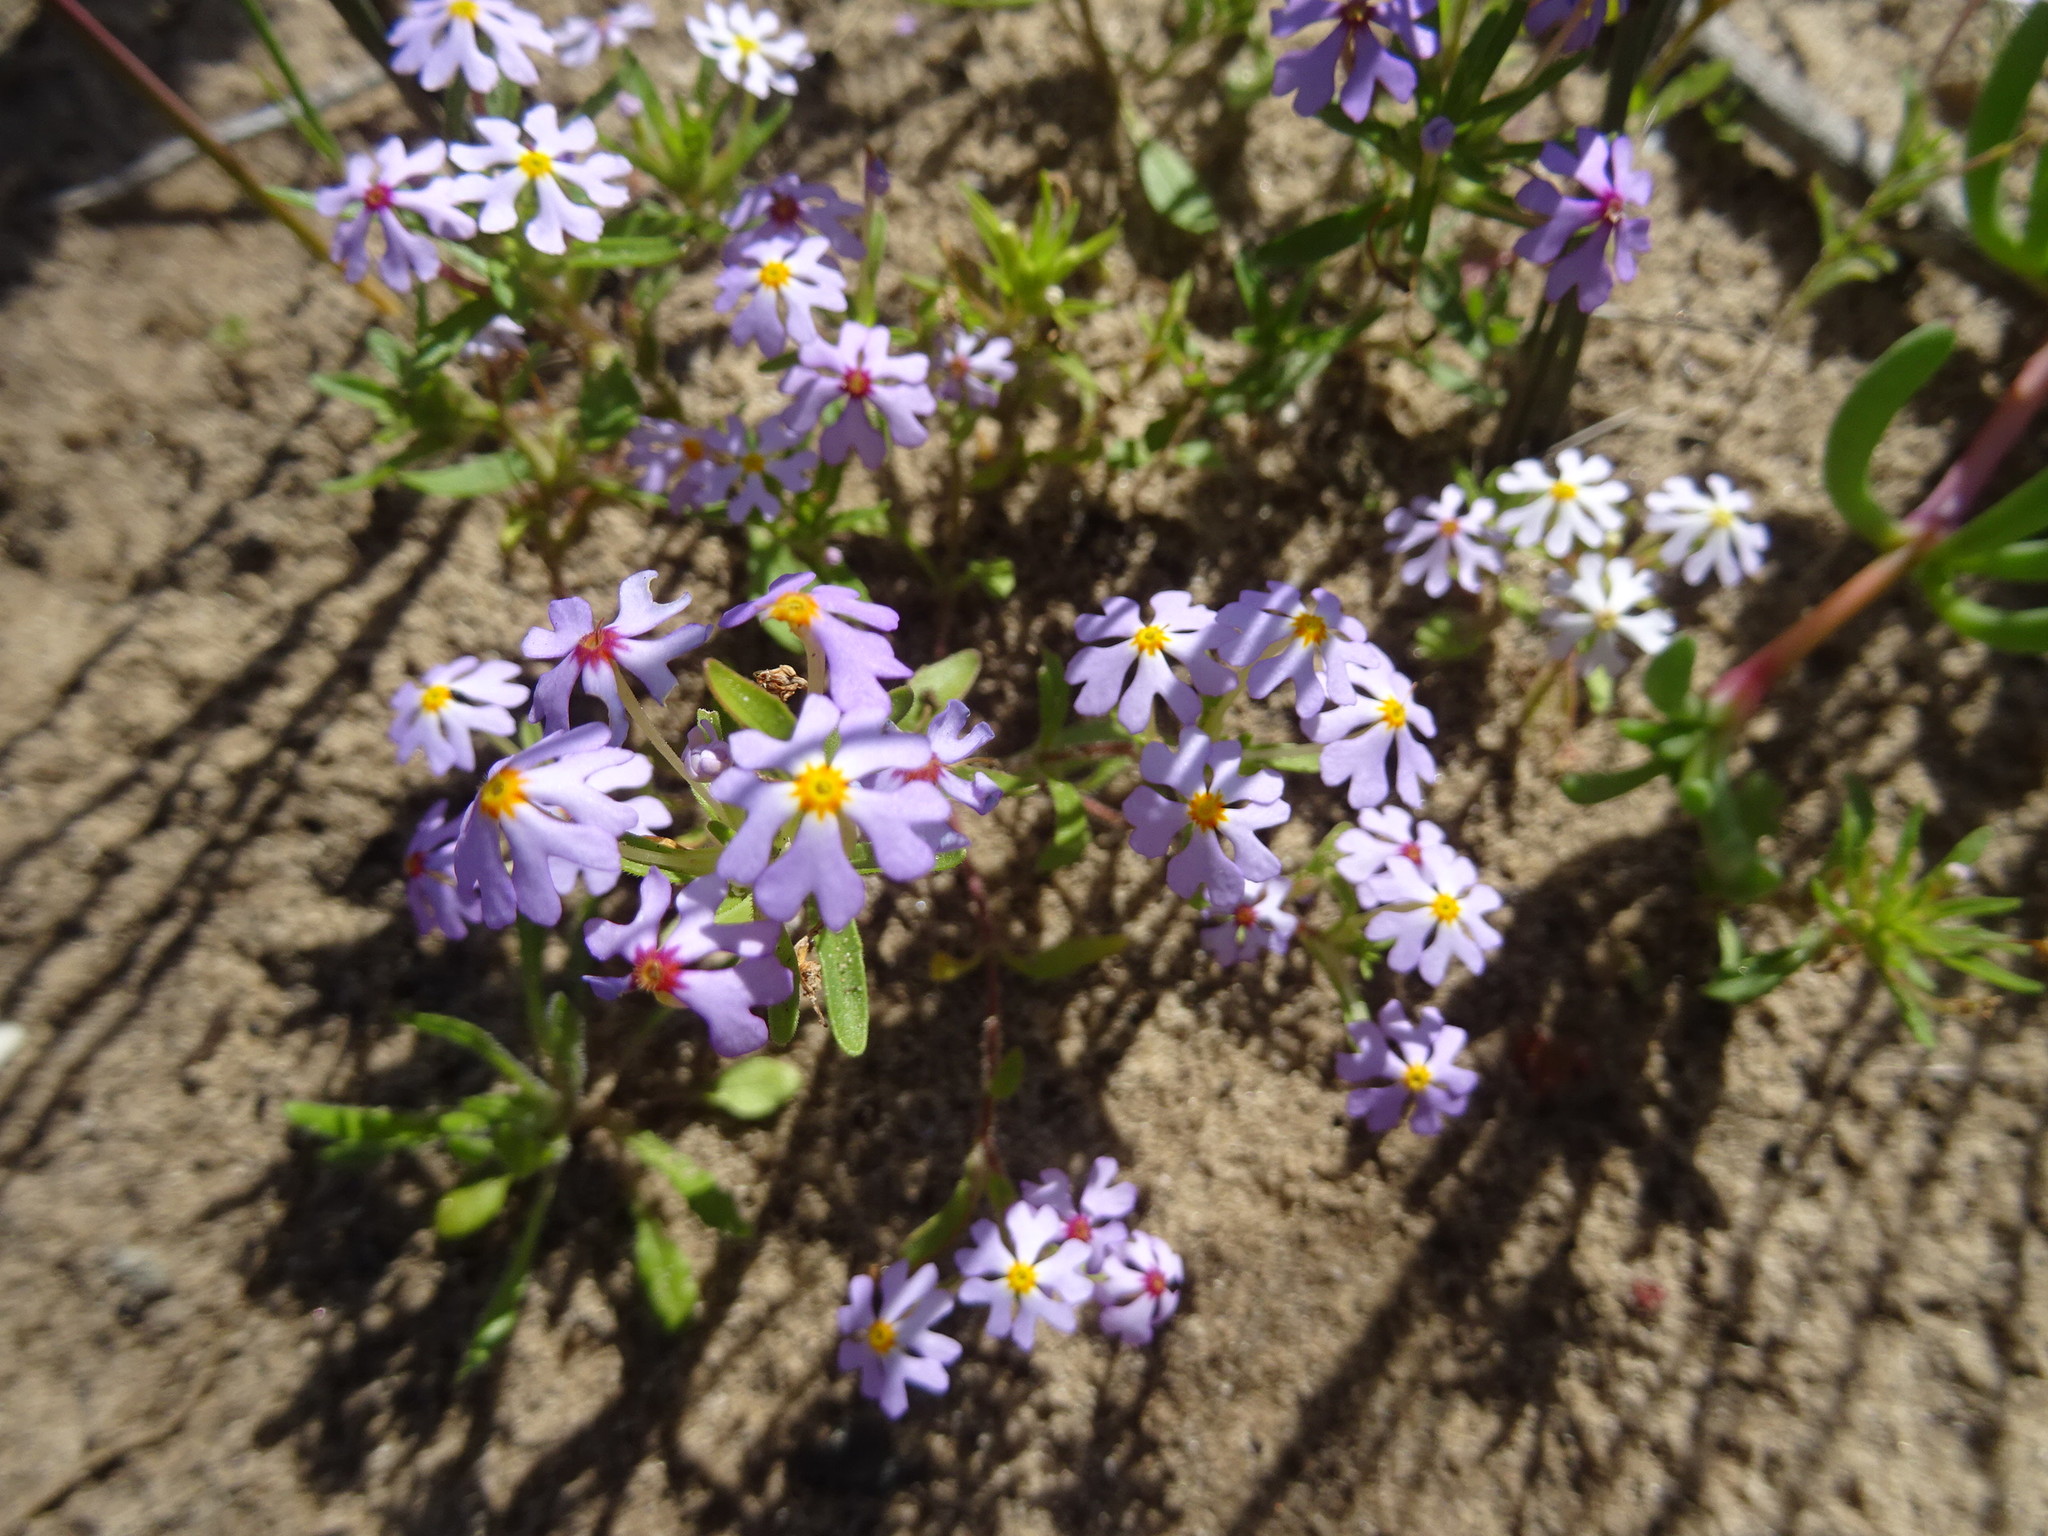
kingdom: Plantae
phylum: Tracheophyta
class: Magnoliopsida
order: Lamiales
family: Scrophulariaceae
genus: Zaluzianskya
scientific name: Zaluzianskya villosa
